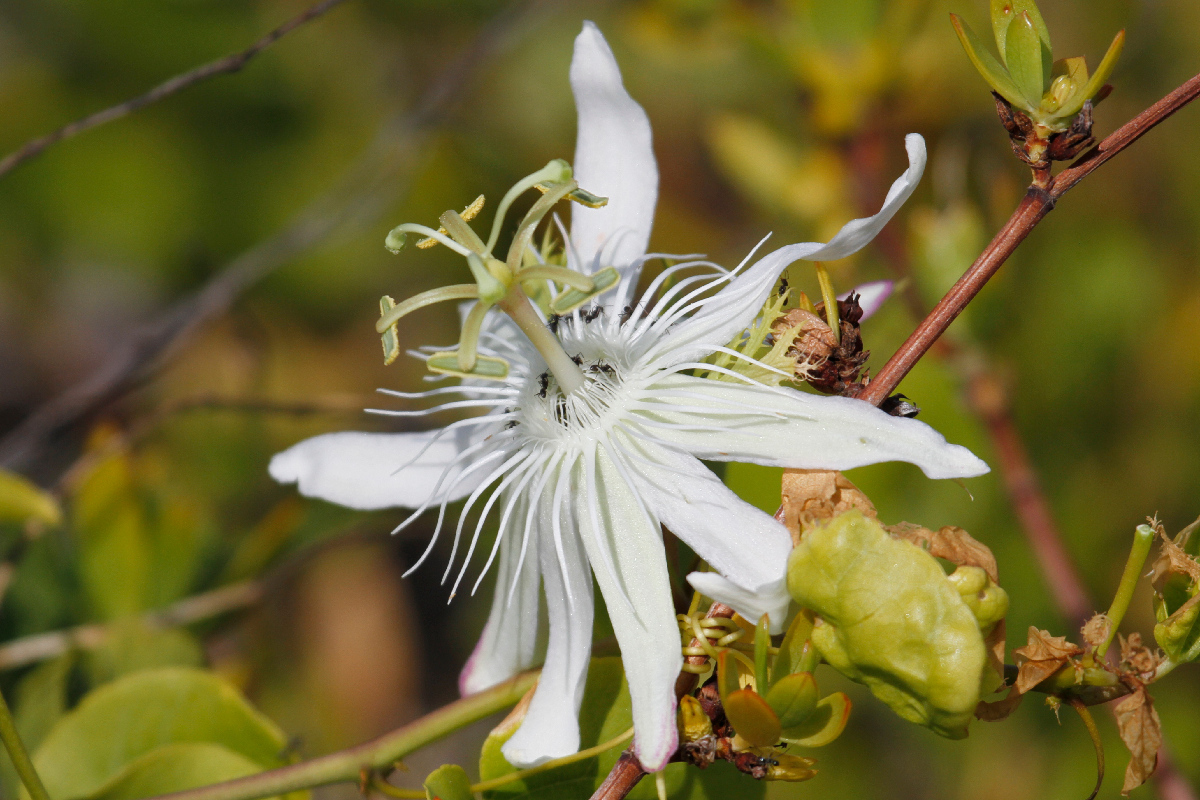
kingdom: Plantae
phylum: Tracheophyta
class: Magnoliopsida
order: Malpighiales
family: Passifloraceae
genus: Passiflora
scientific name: Passiflora pectinata
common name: White passionflower
